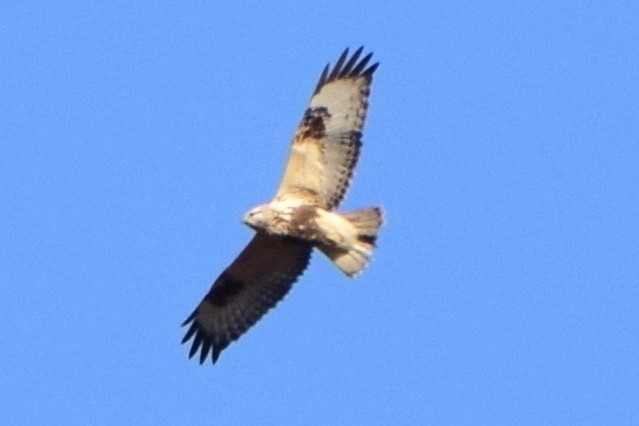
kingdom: Animalia
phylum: Chordata
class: Aves
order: Accipitriformes
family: Accipitridae
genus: Buteo
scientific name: Buteo lagopus
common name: Rough-legged buzzard
